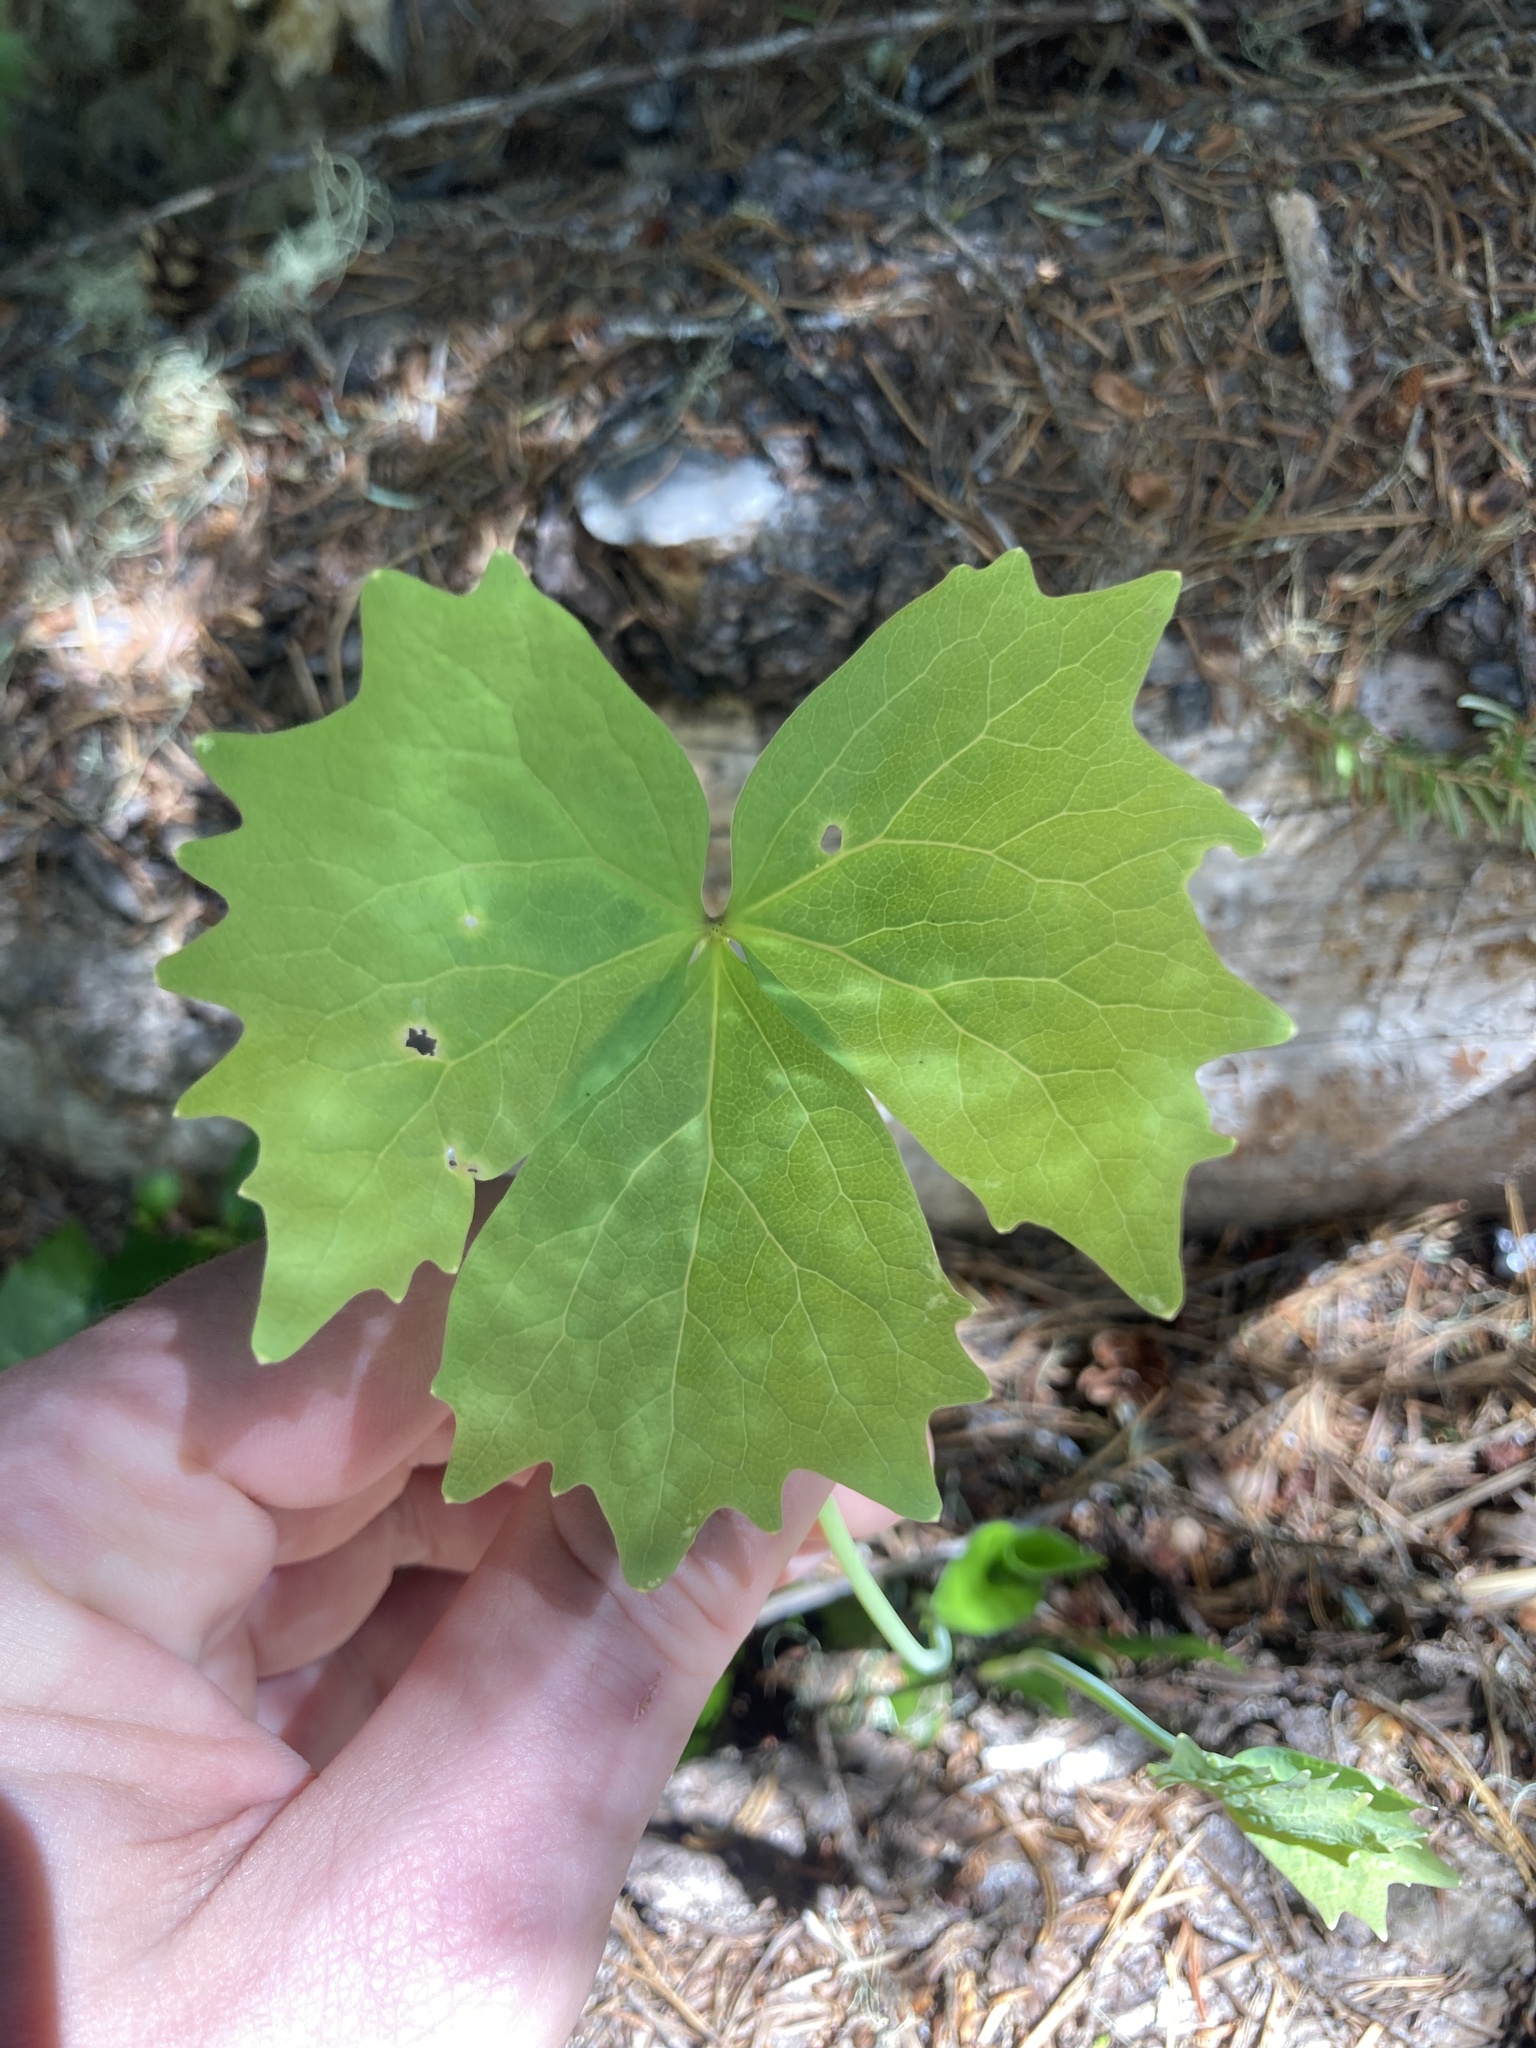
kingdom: Plantae
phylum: Tracheophyta
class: Magnoliopsida
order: Ranunculales
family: Berberidaceae
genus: Achlys
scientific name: Achlys californica
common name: California deer-foot
